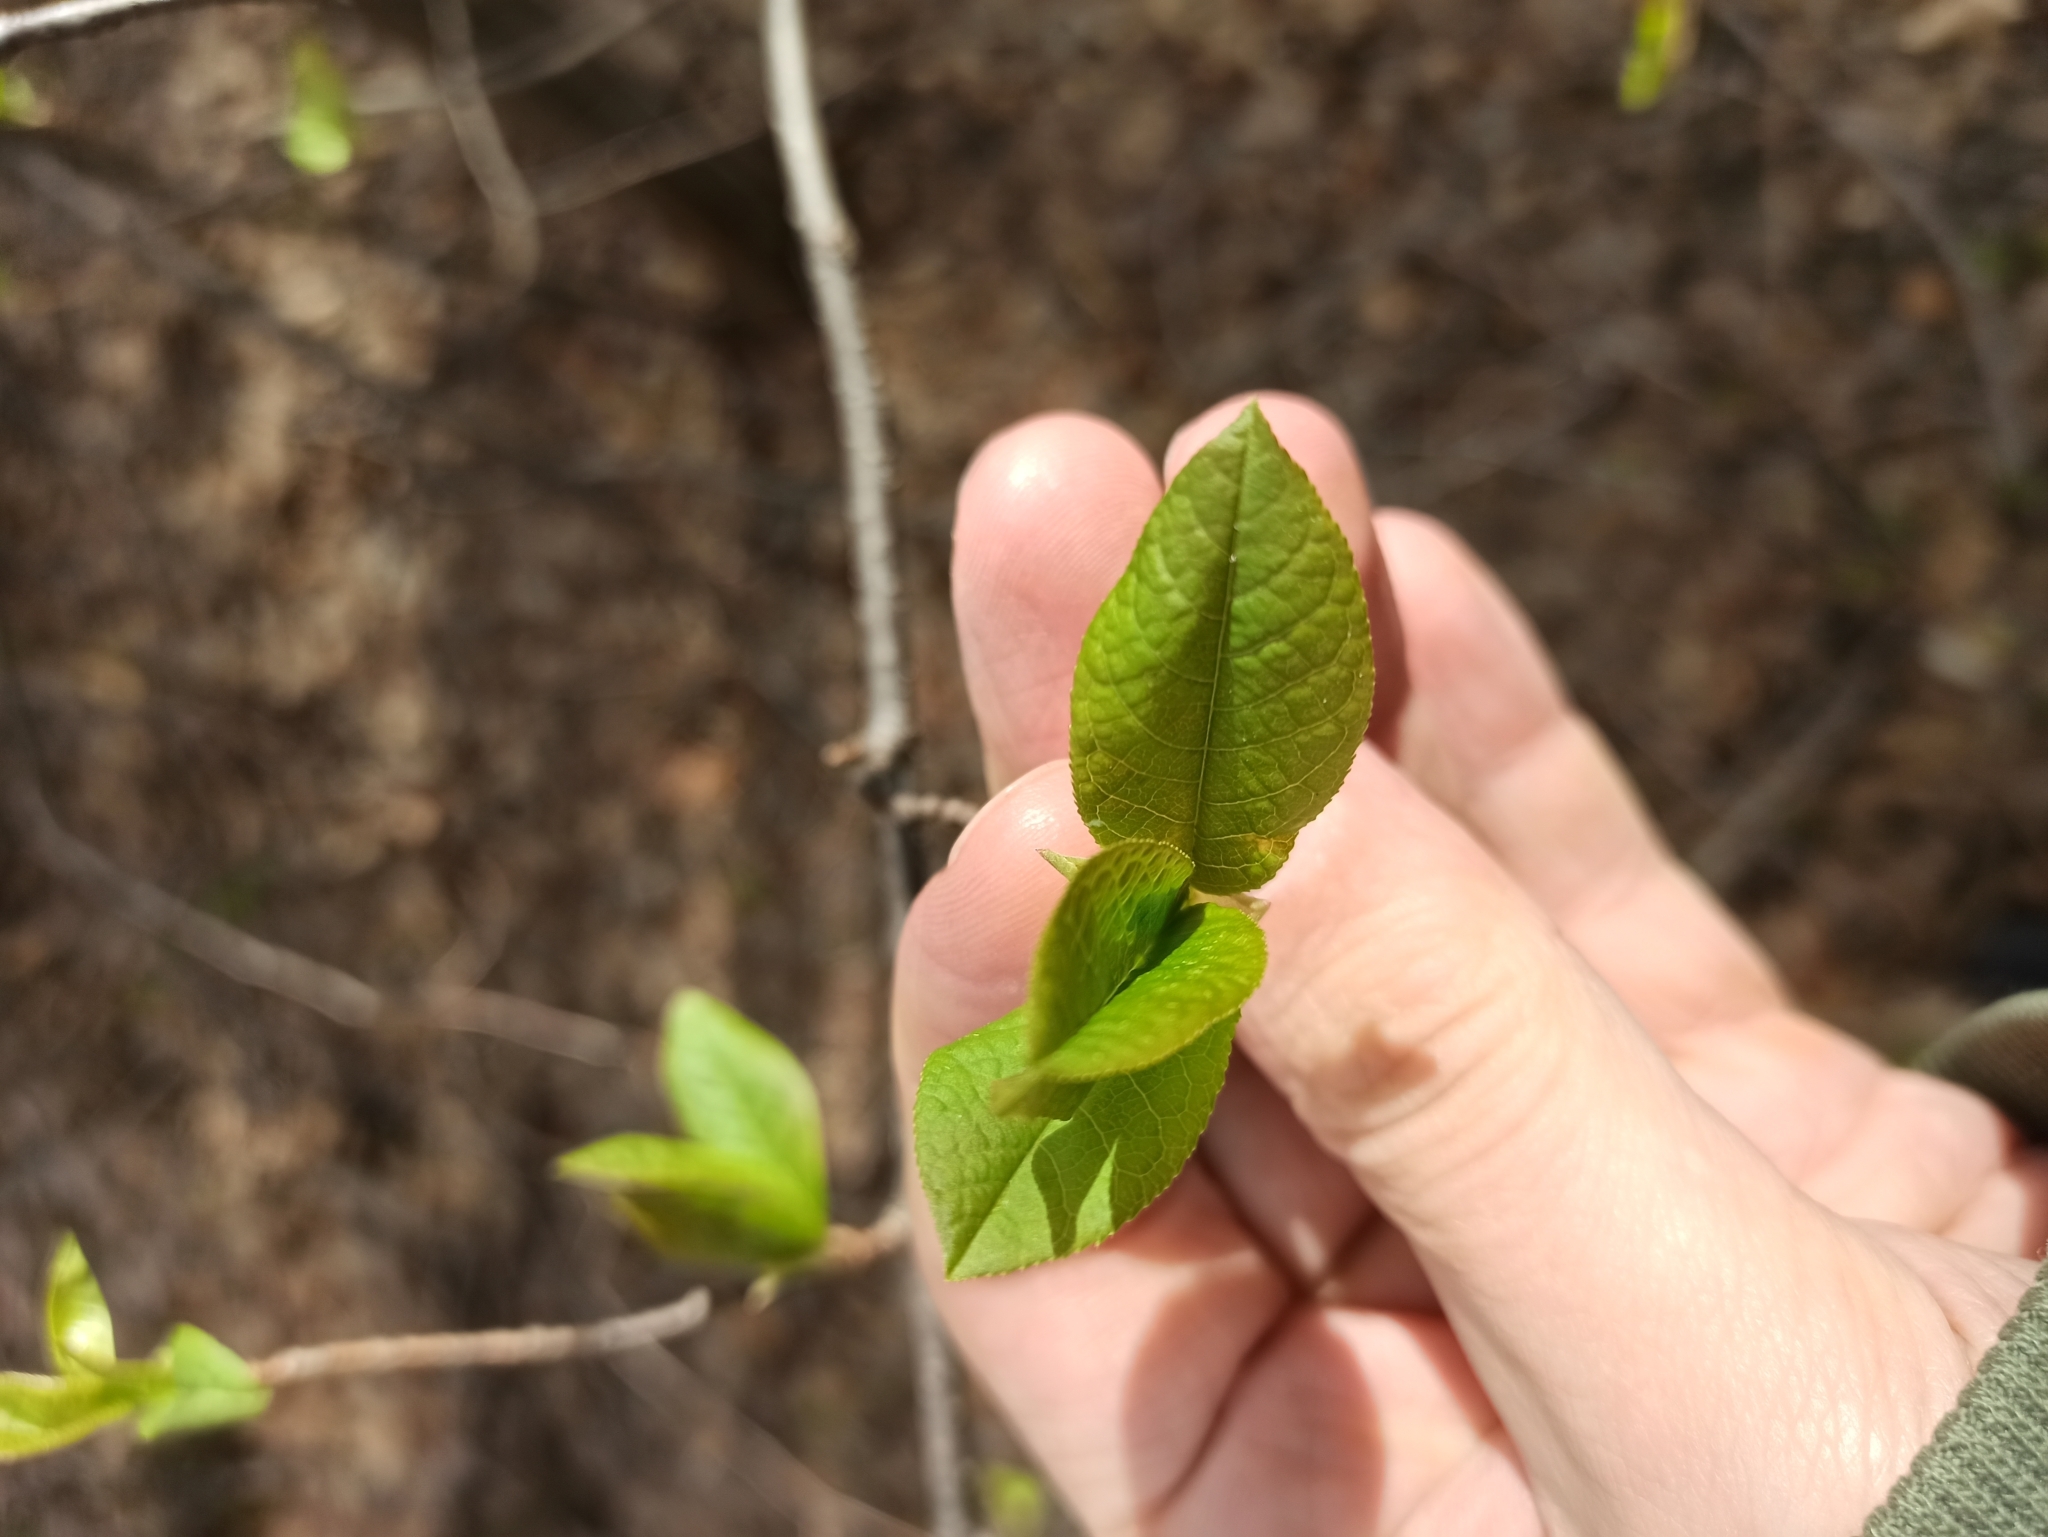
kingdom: Plantae
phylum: Tracheophyta
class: Magnoliopsida
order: Rosales
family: Rosaceae
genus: Prunus
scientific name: Prunus padus
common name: Bird cherry
